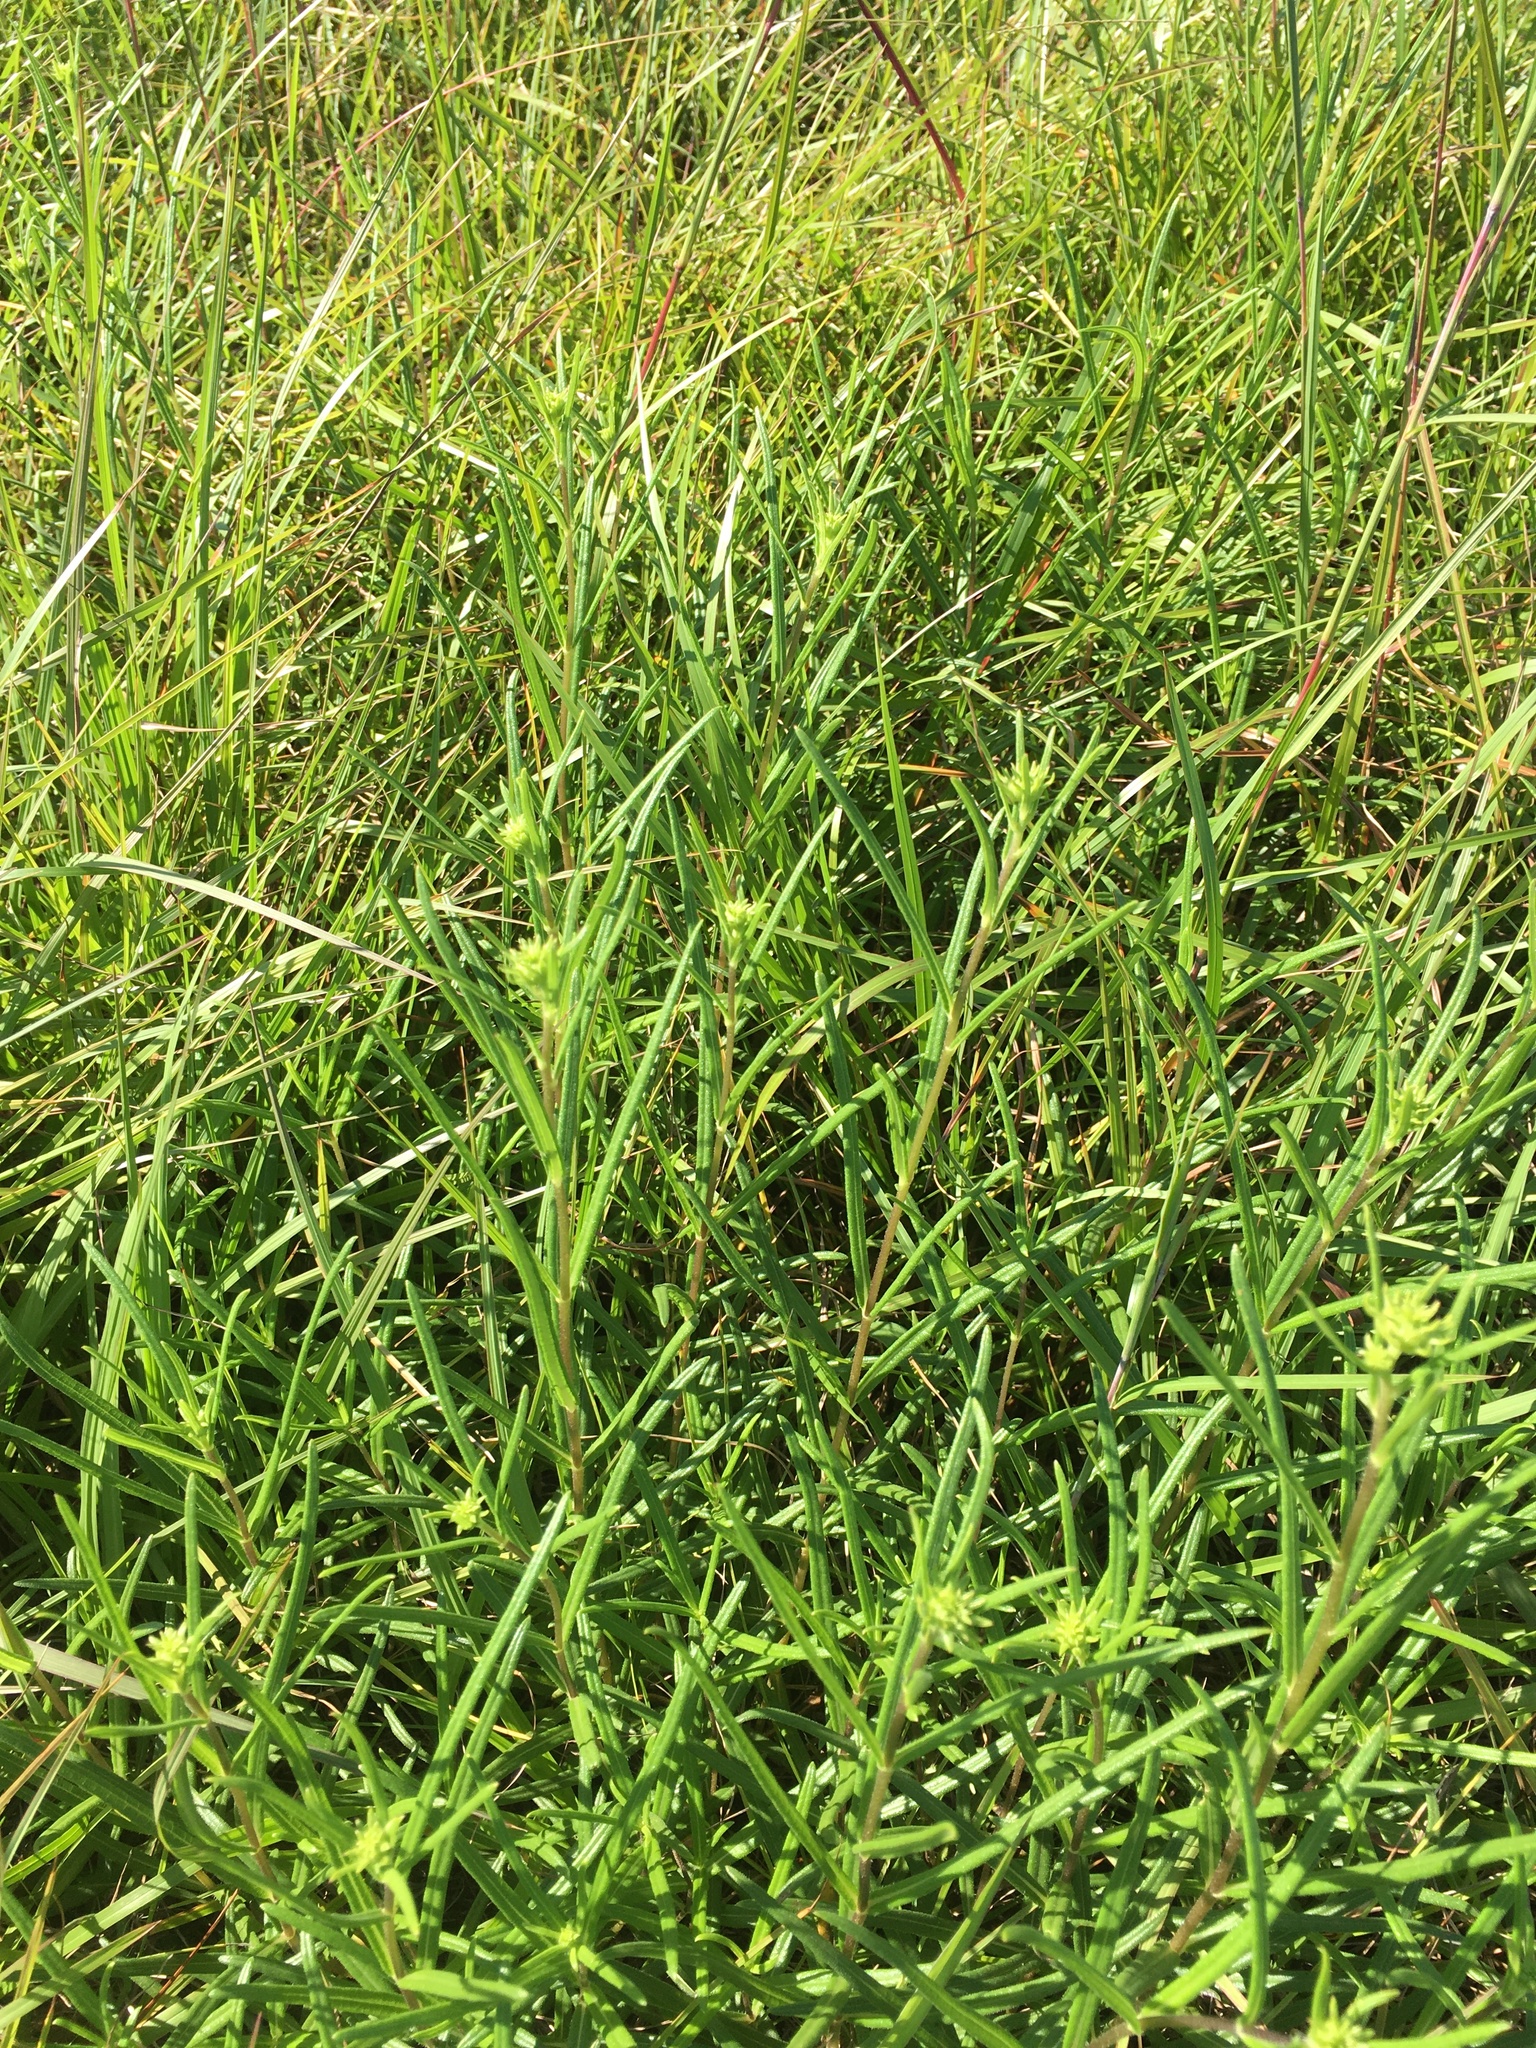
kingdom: Plantae
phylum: Tracheophyta
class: Magnoliopsida
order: Asterales
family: Asteraceae
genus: Helianthus
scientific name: Helianthus angustifolius
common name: Swamp sunflower
